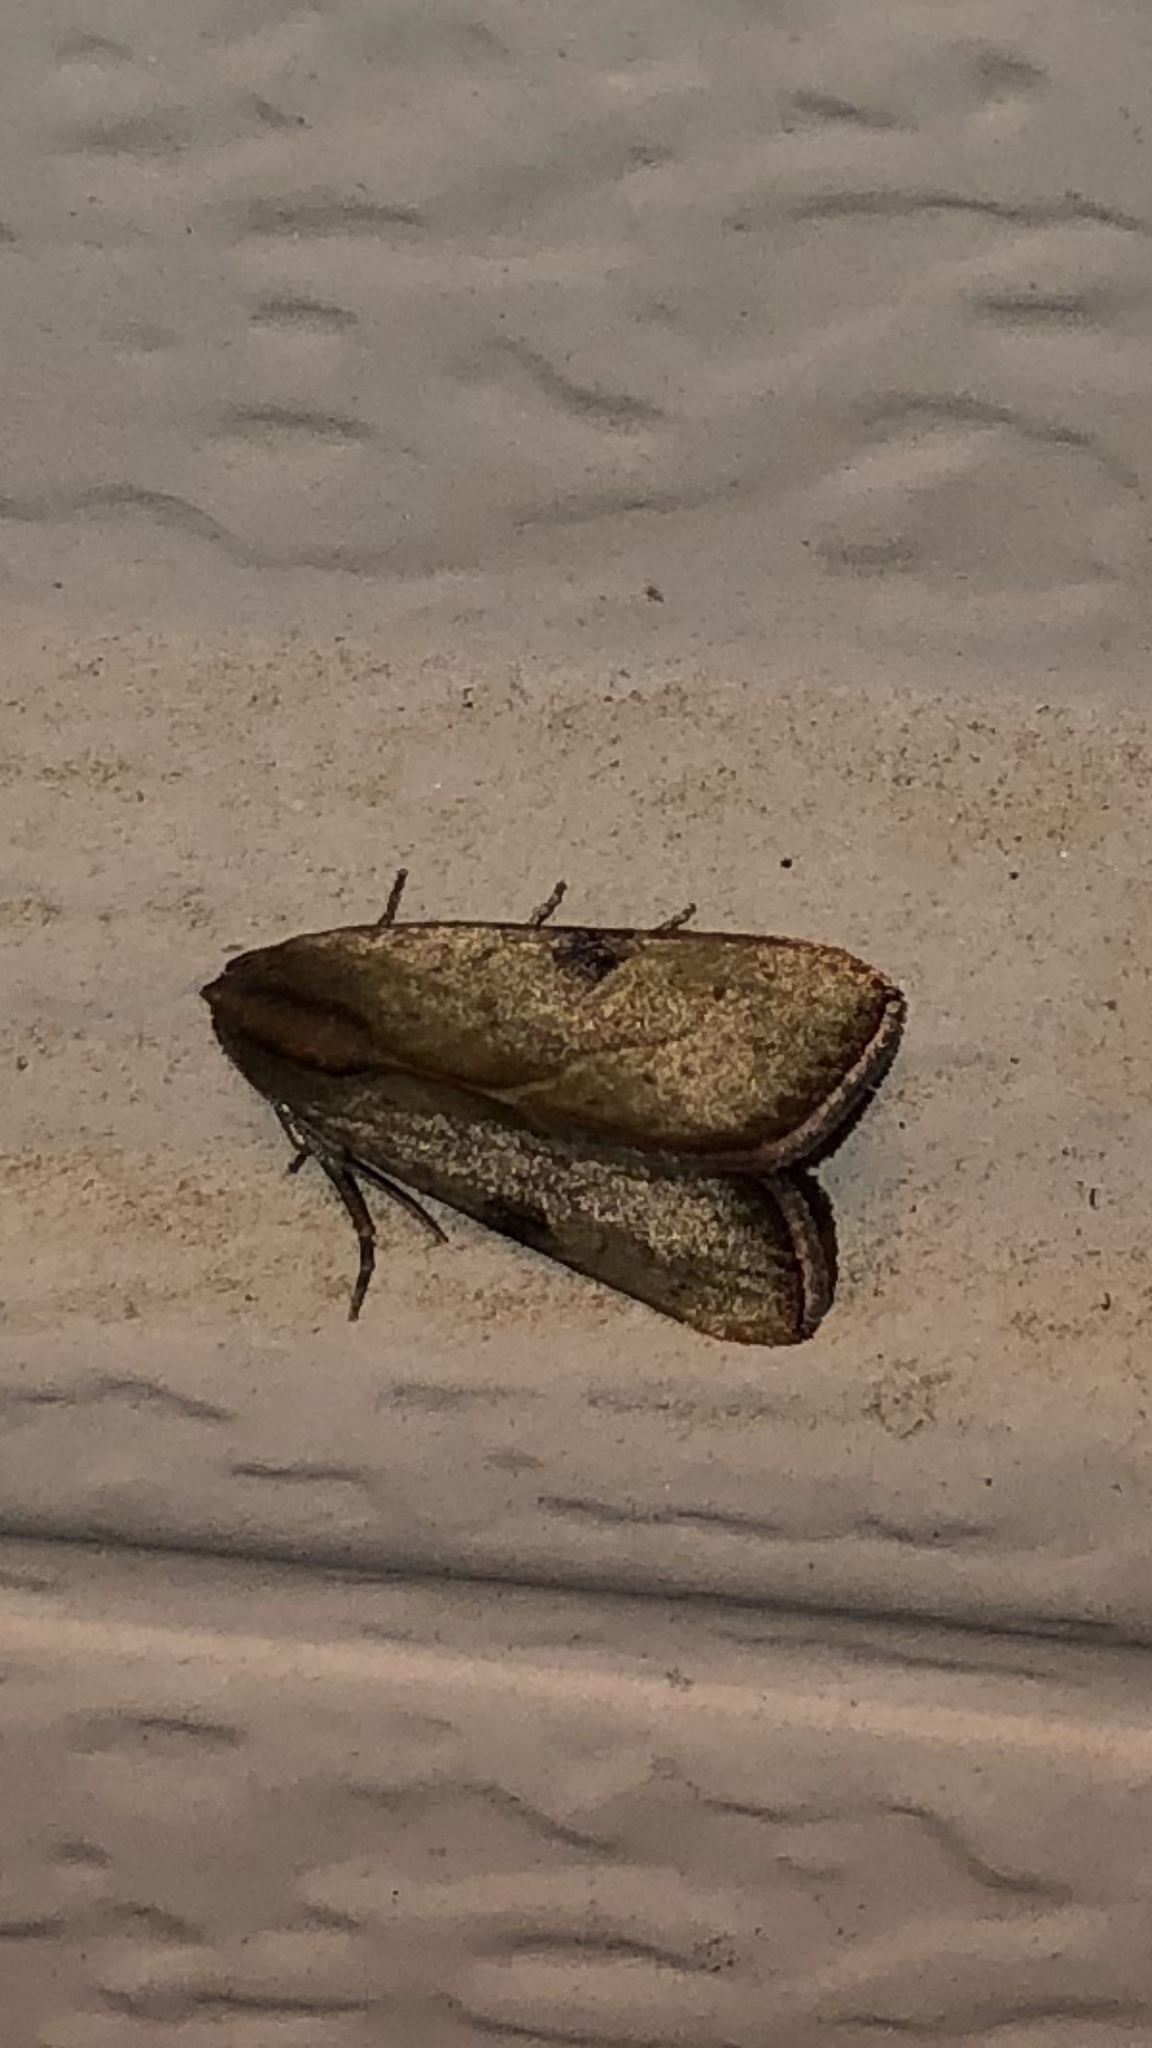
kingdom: Animalia
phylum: Arthropoda
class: Insecta
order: Lepidoptera
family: Noctuidae
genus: Galgula
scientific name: Galgula partita
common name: Wedgeling
